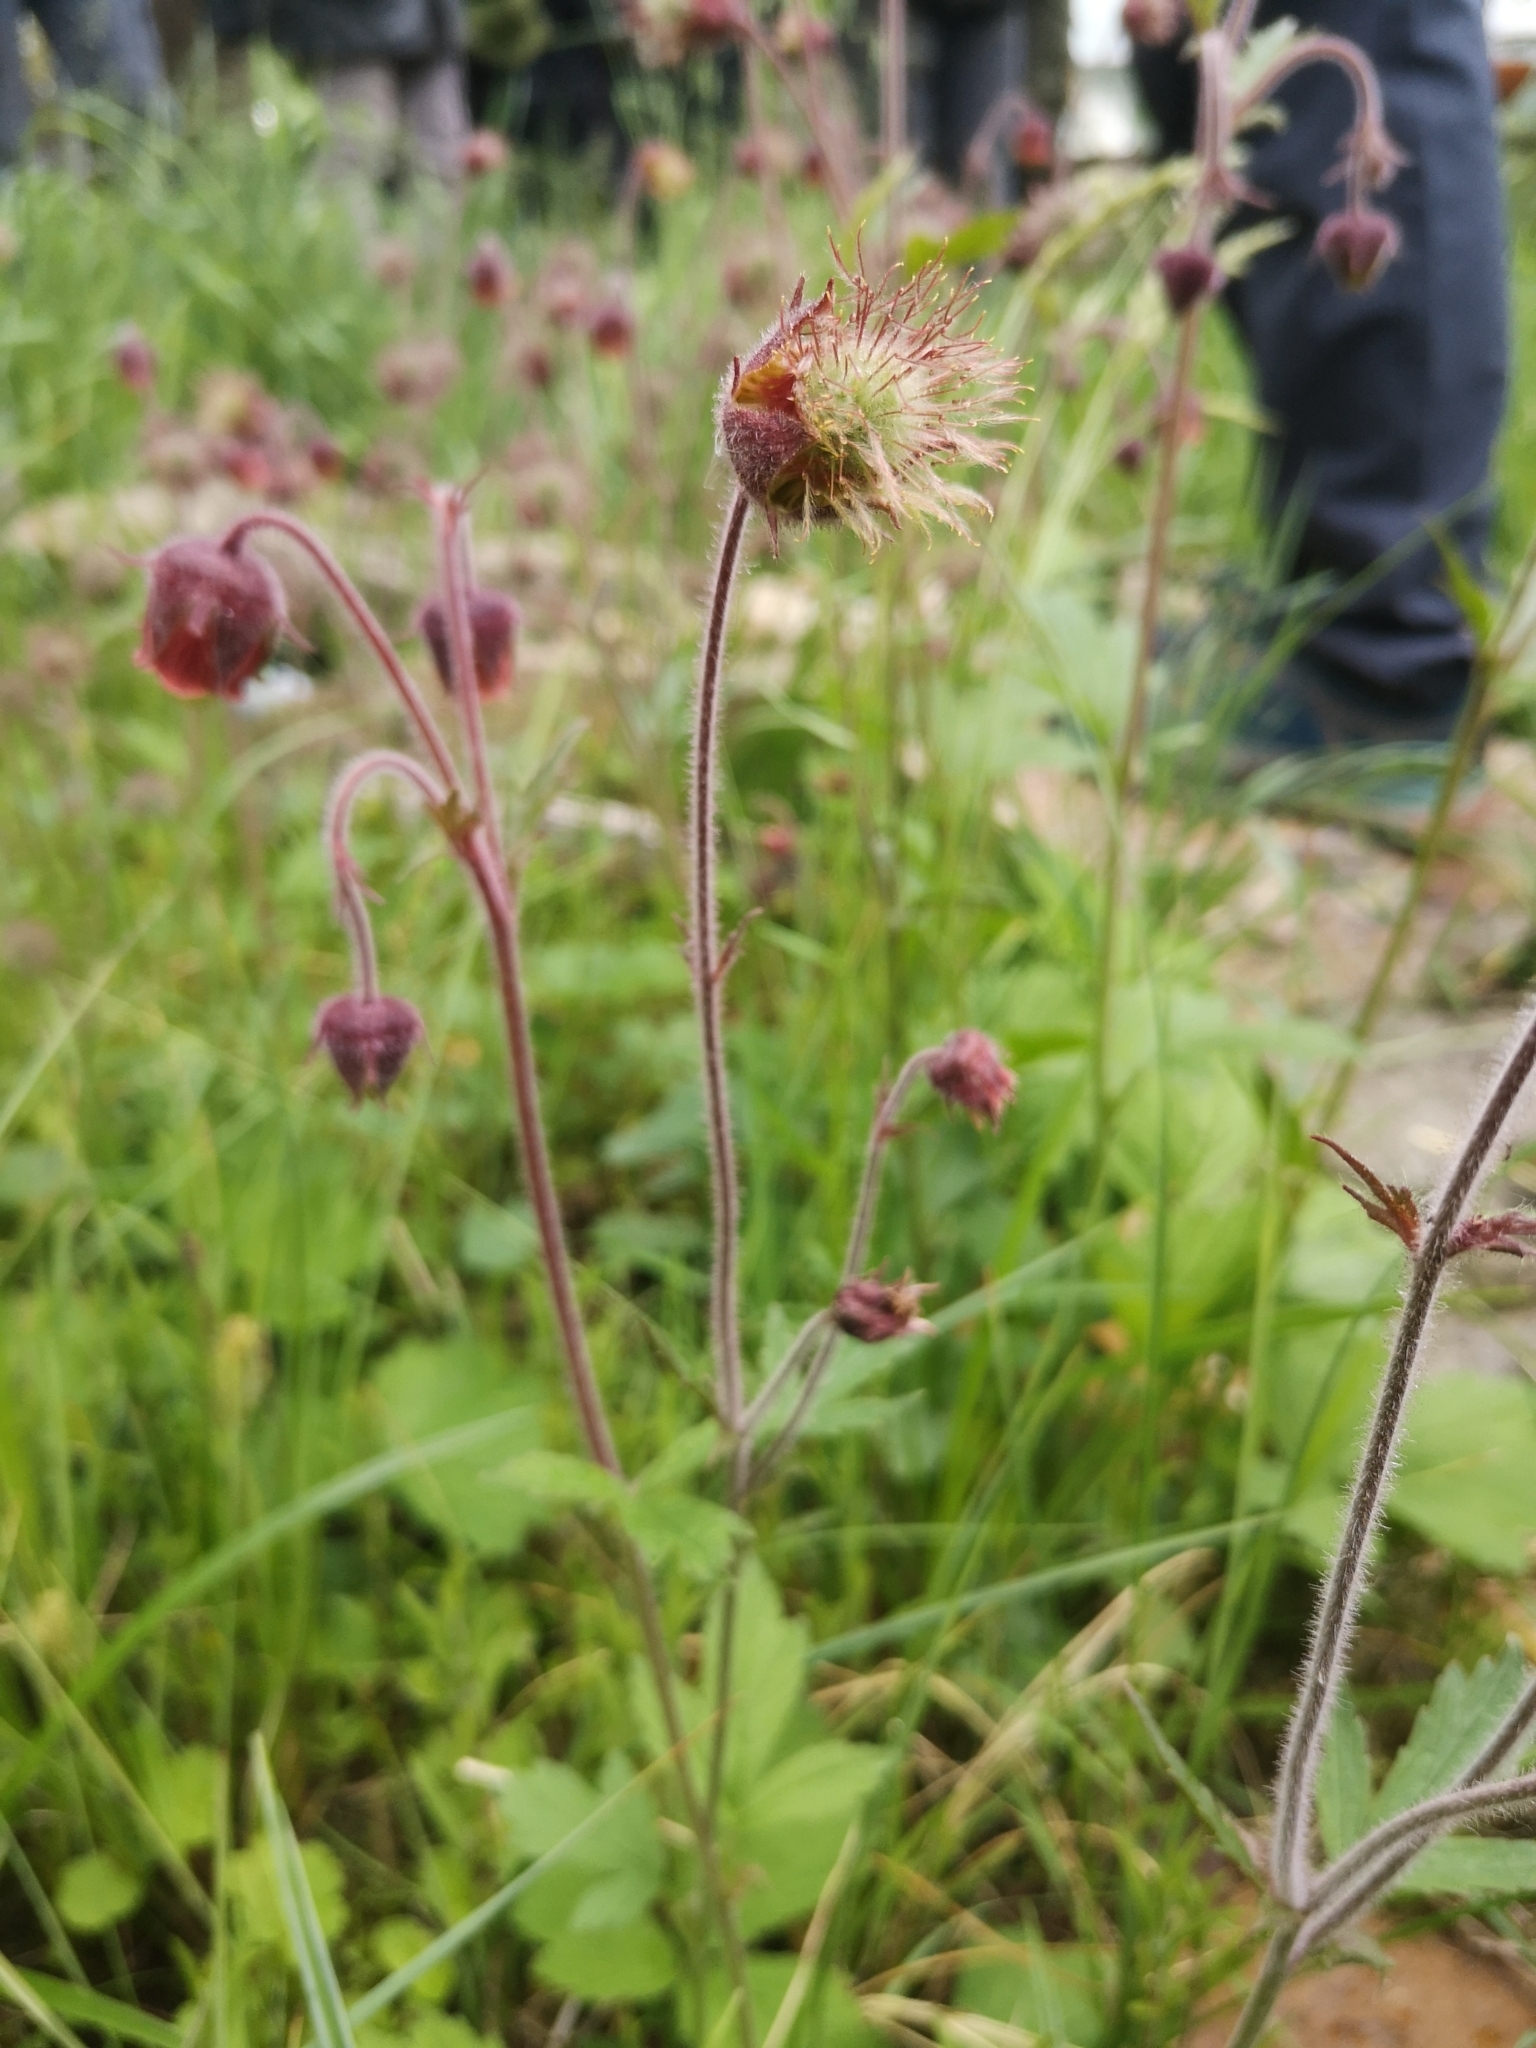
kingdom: Plantae
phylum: Tracheophyta
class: Magnoliopsida
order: Rosales
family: Rosaceae
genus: Geum
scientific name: Geum rivale
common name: Water avens
